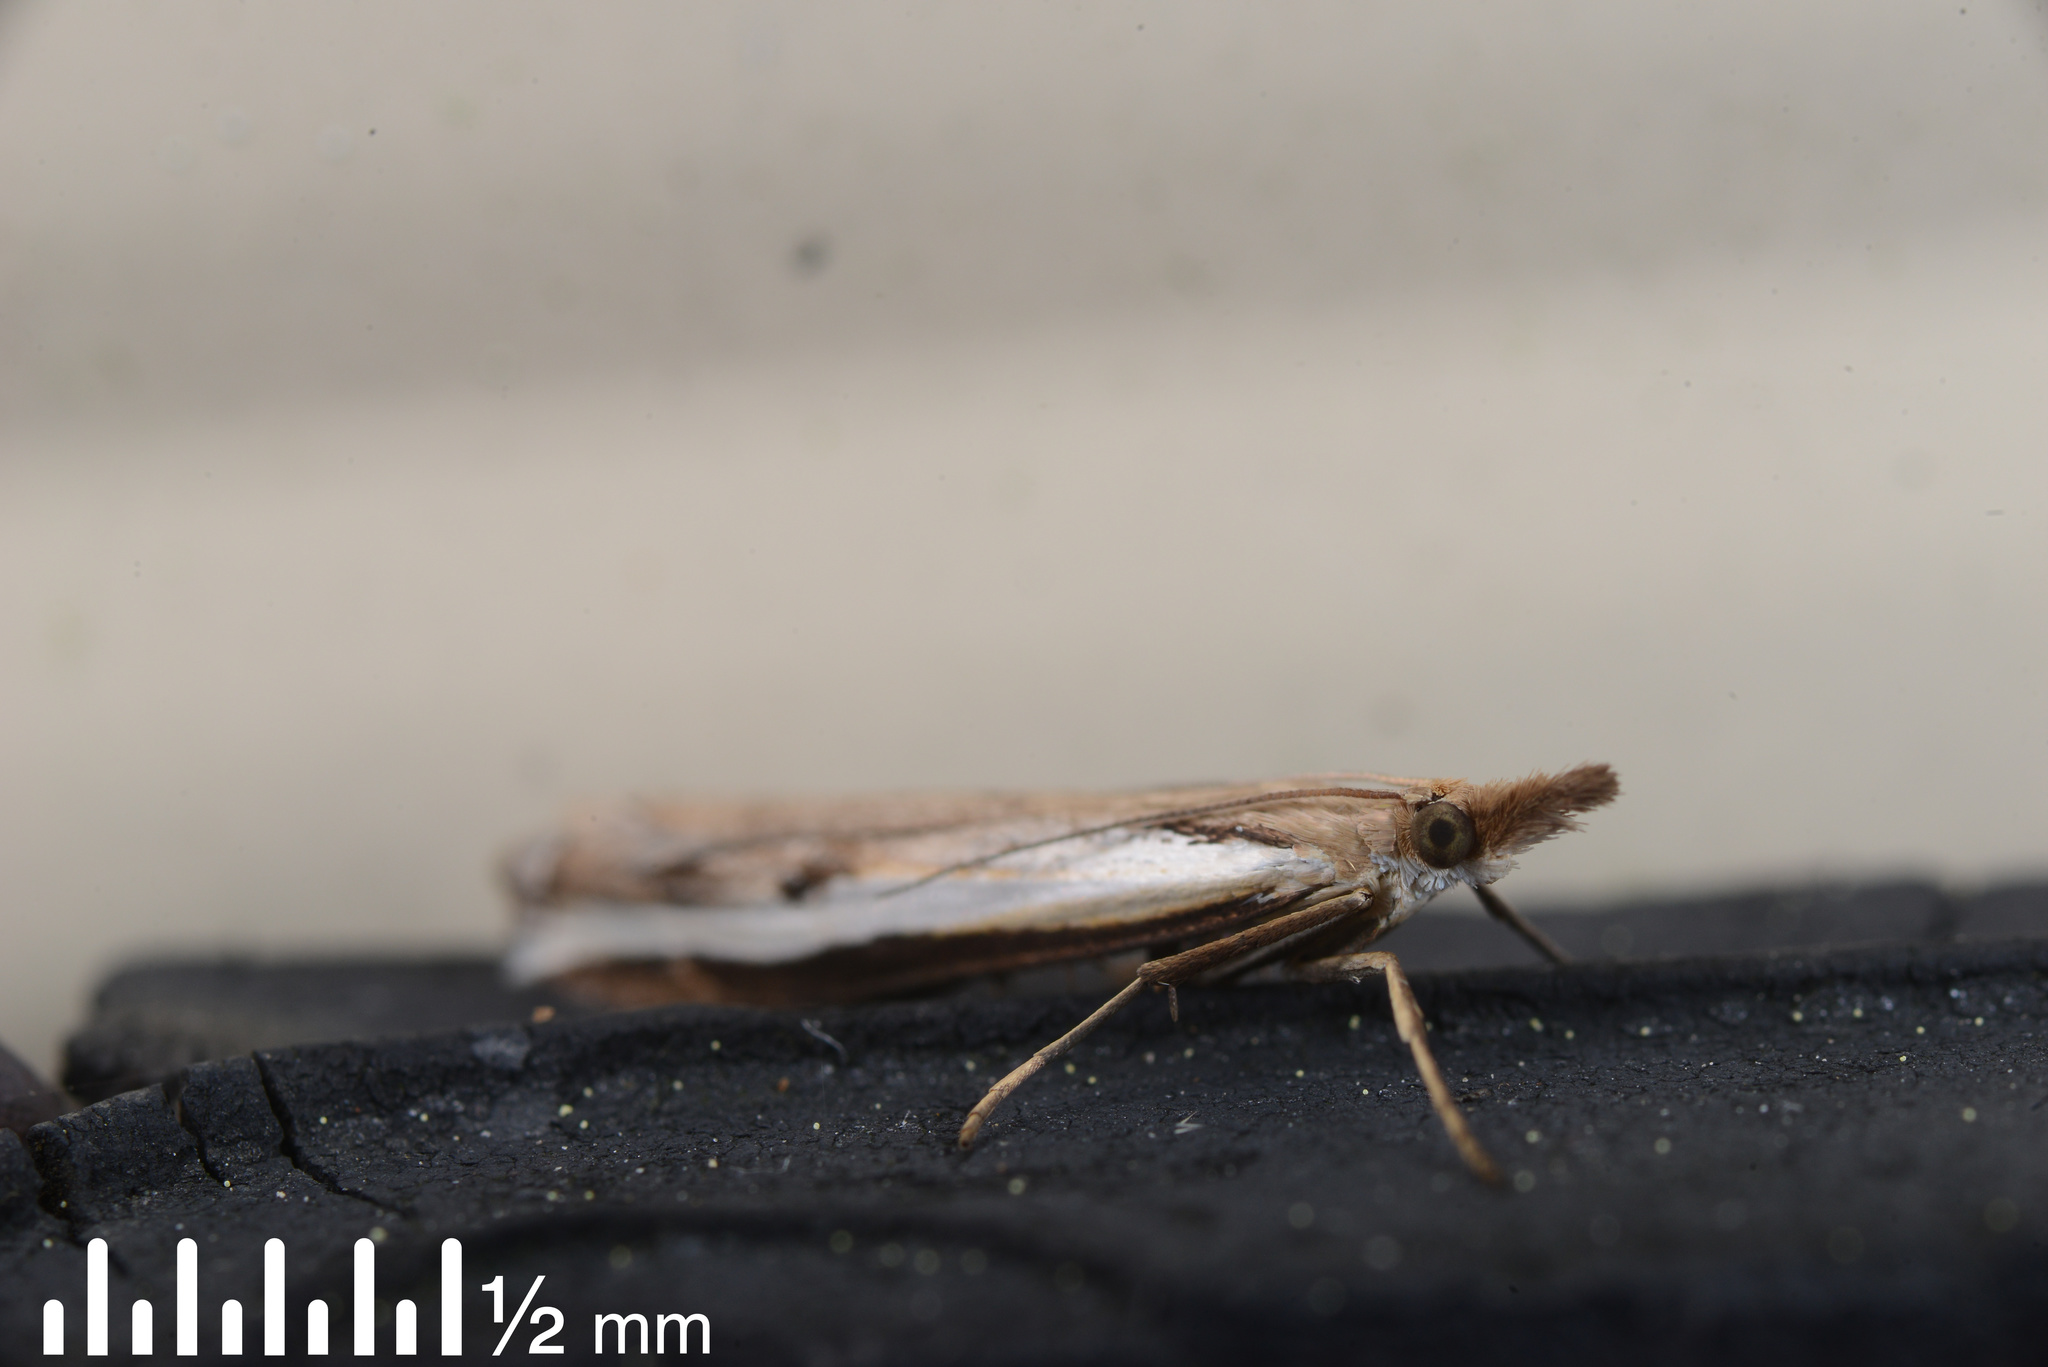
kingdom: Animalia
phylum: Arthropoda
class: Insecta
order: Lepidoptera
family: Crambidae
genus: Orocrambus
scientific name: Orocrambus flexuosellus
